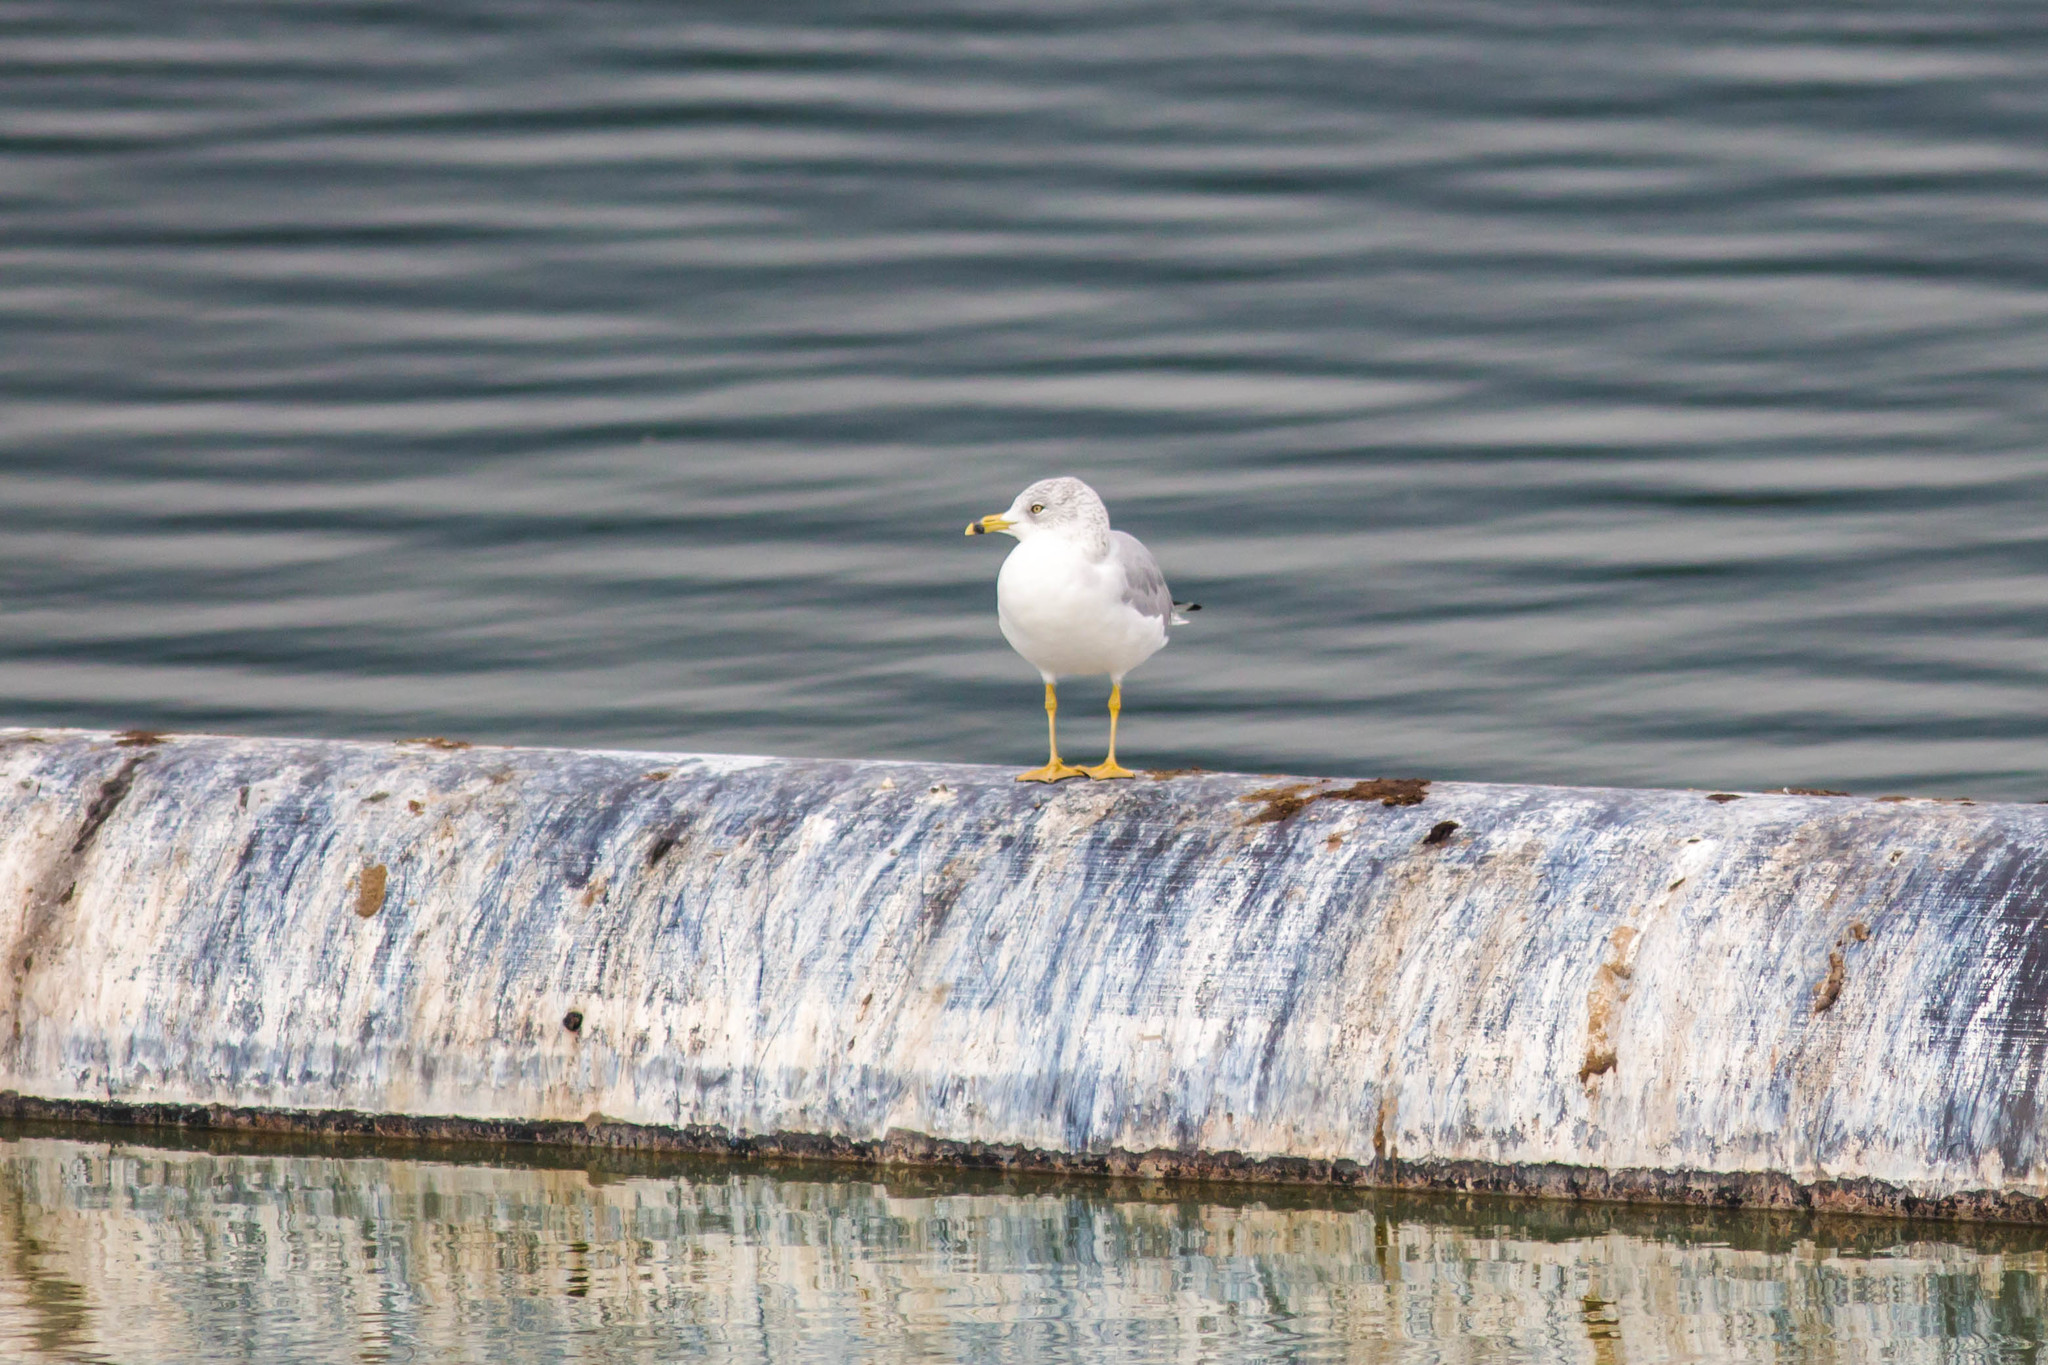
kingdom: Animalia
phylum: Chordata
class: Aves
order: Charadriiformes
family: Laridae
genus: Larus
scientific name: Larus delawarensis
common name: Ring-billed gull
